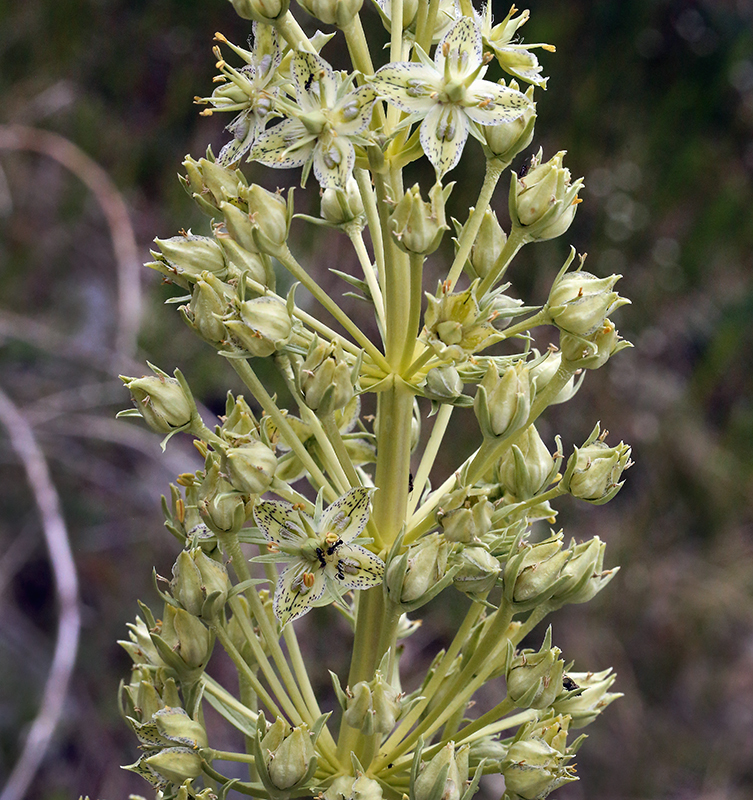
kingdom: Plantae
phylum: Tracheophyta
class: Magnoliopsida
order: Gentianales
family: Gentianaceae
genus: Frasera
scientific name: Frasera speciosa
